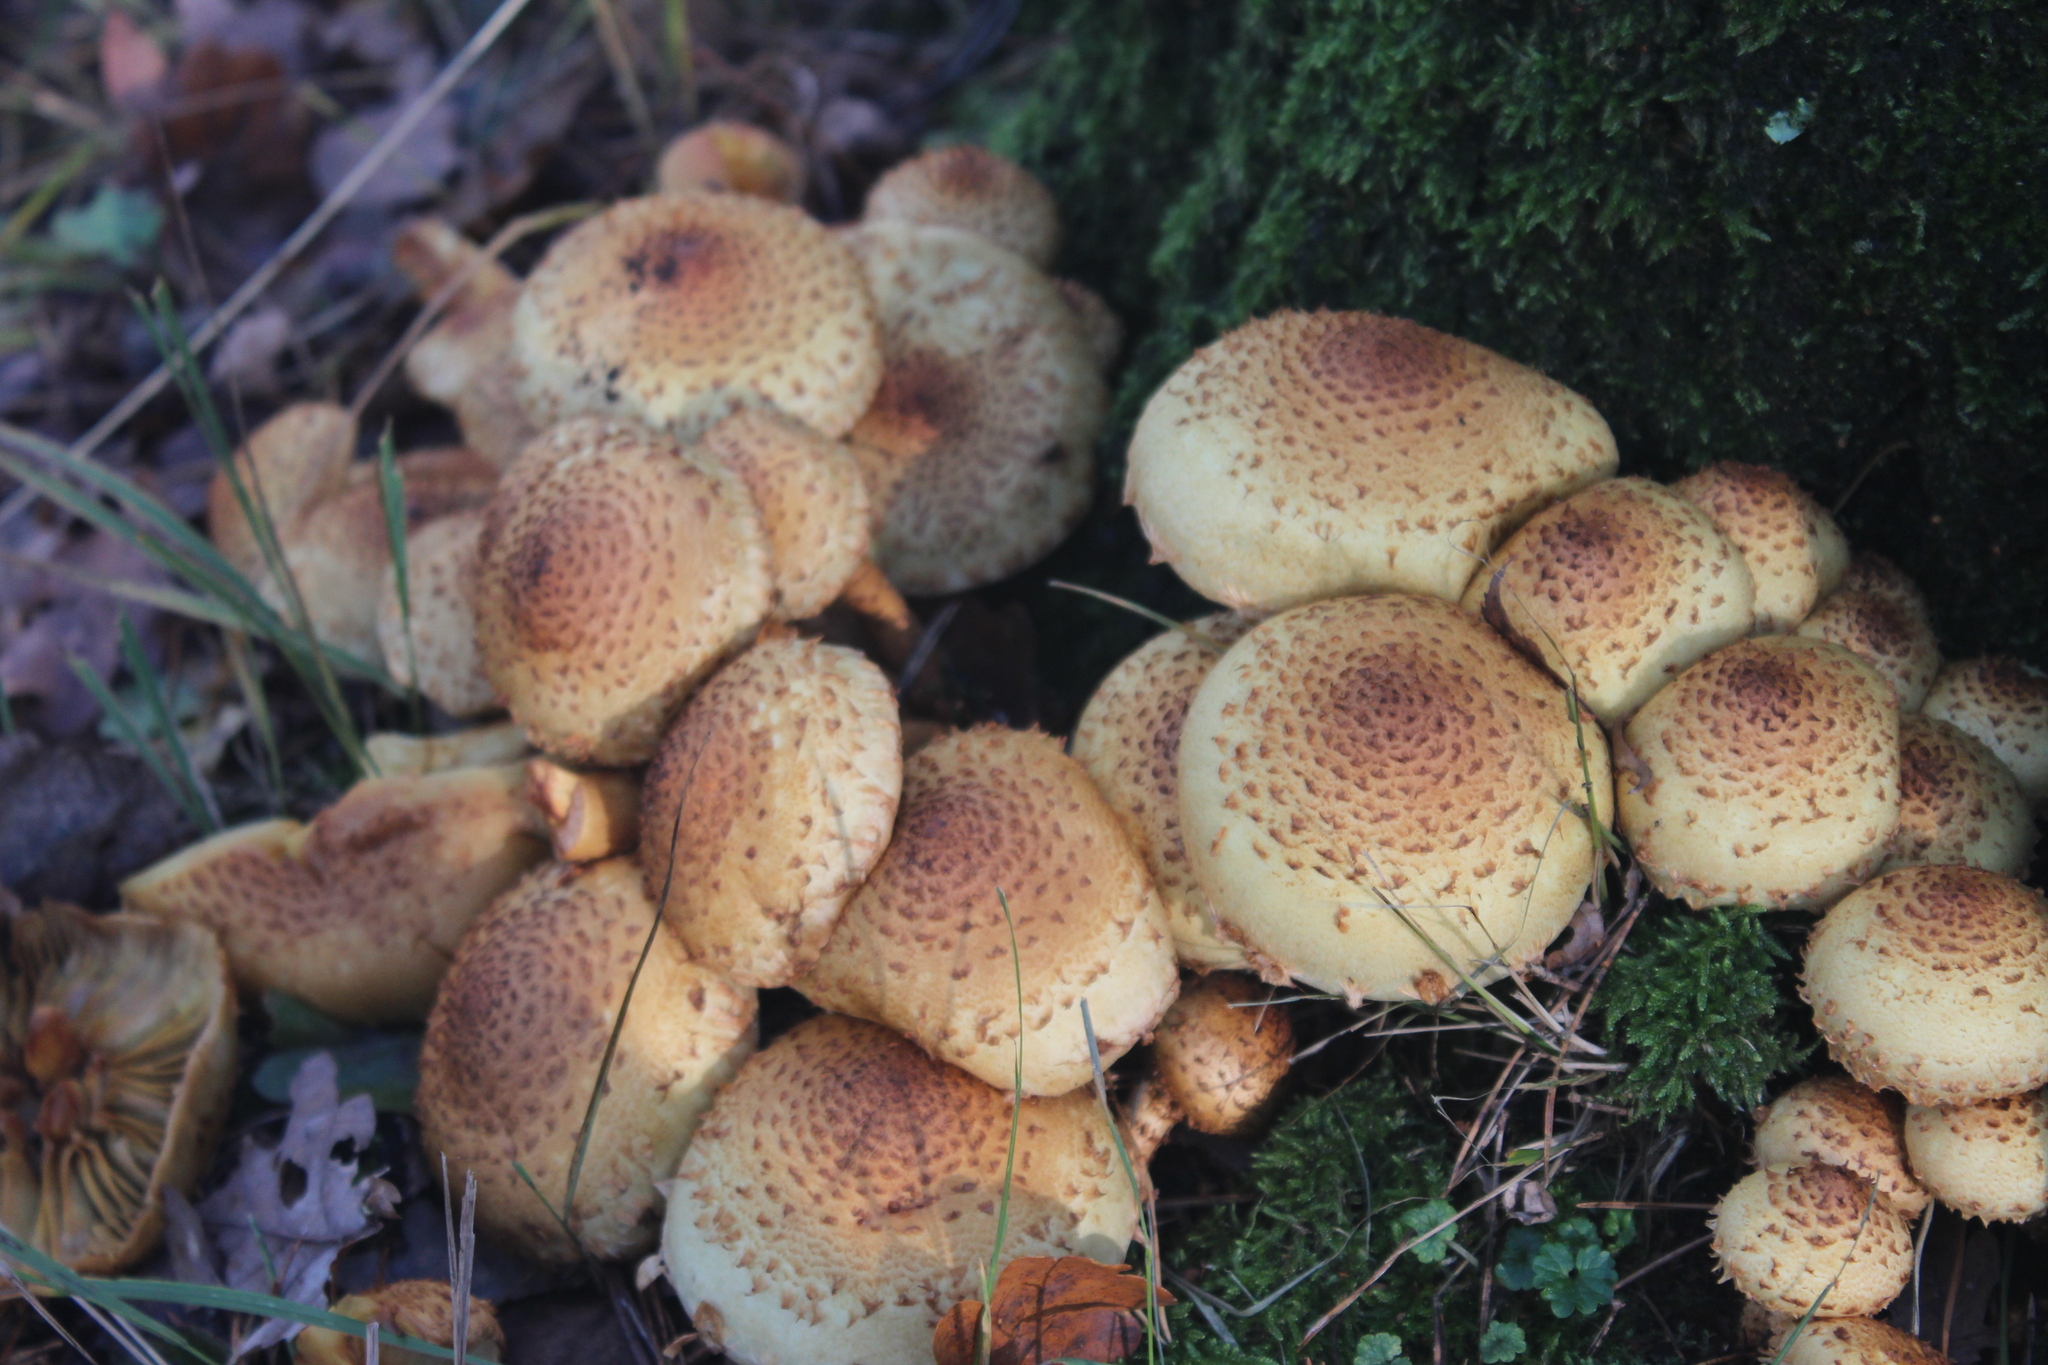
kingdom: Fungi
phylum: Basidiomycota
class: Agaricomycetes
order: Agaricales
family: Strophariaceae
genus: Pholiota
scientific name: Pholiota squarrosa
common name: Shaggy pholiota
